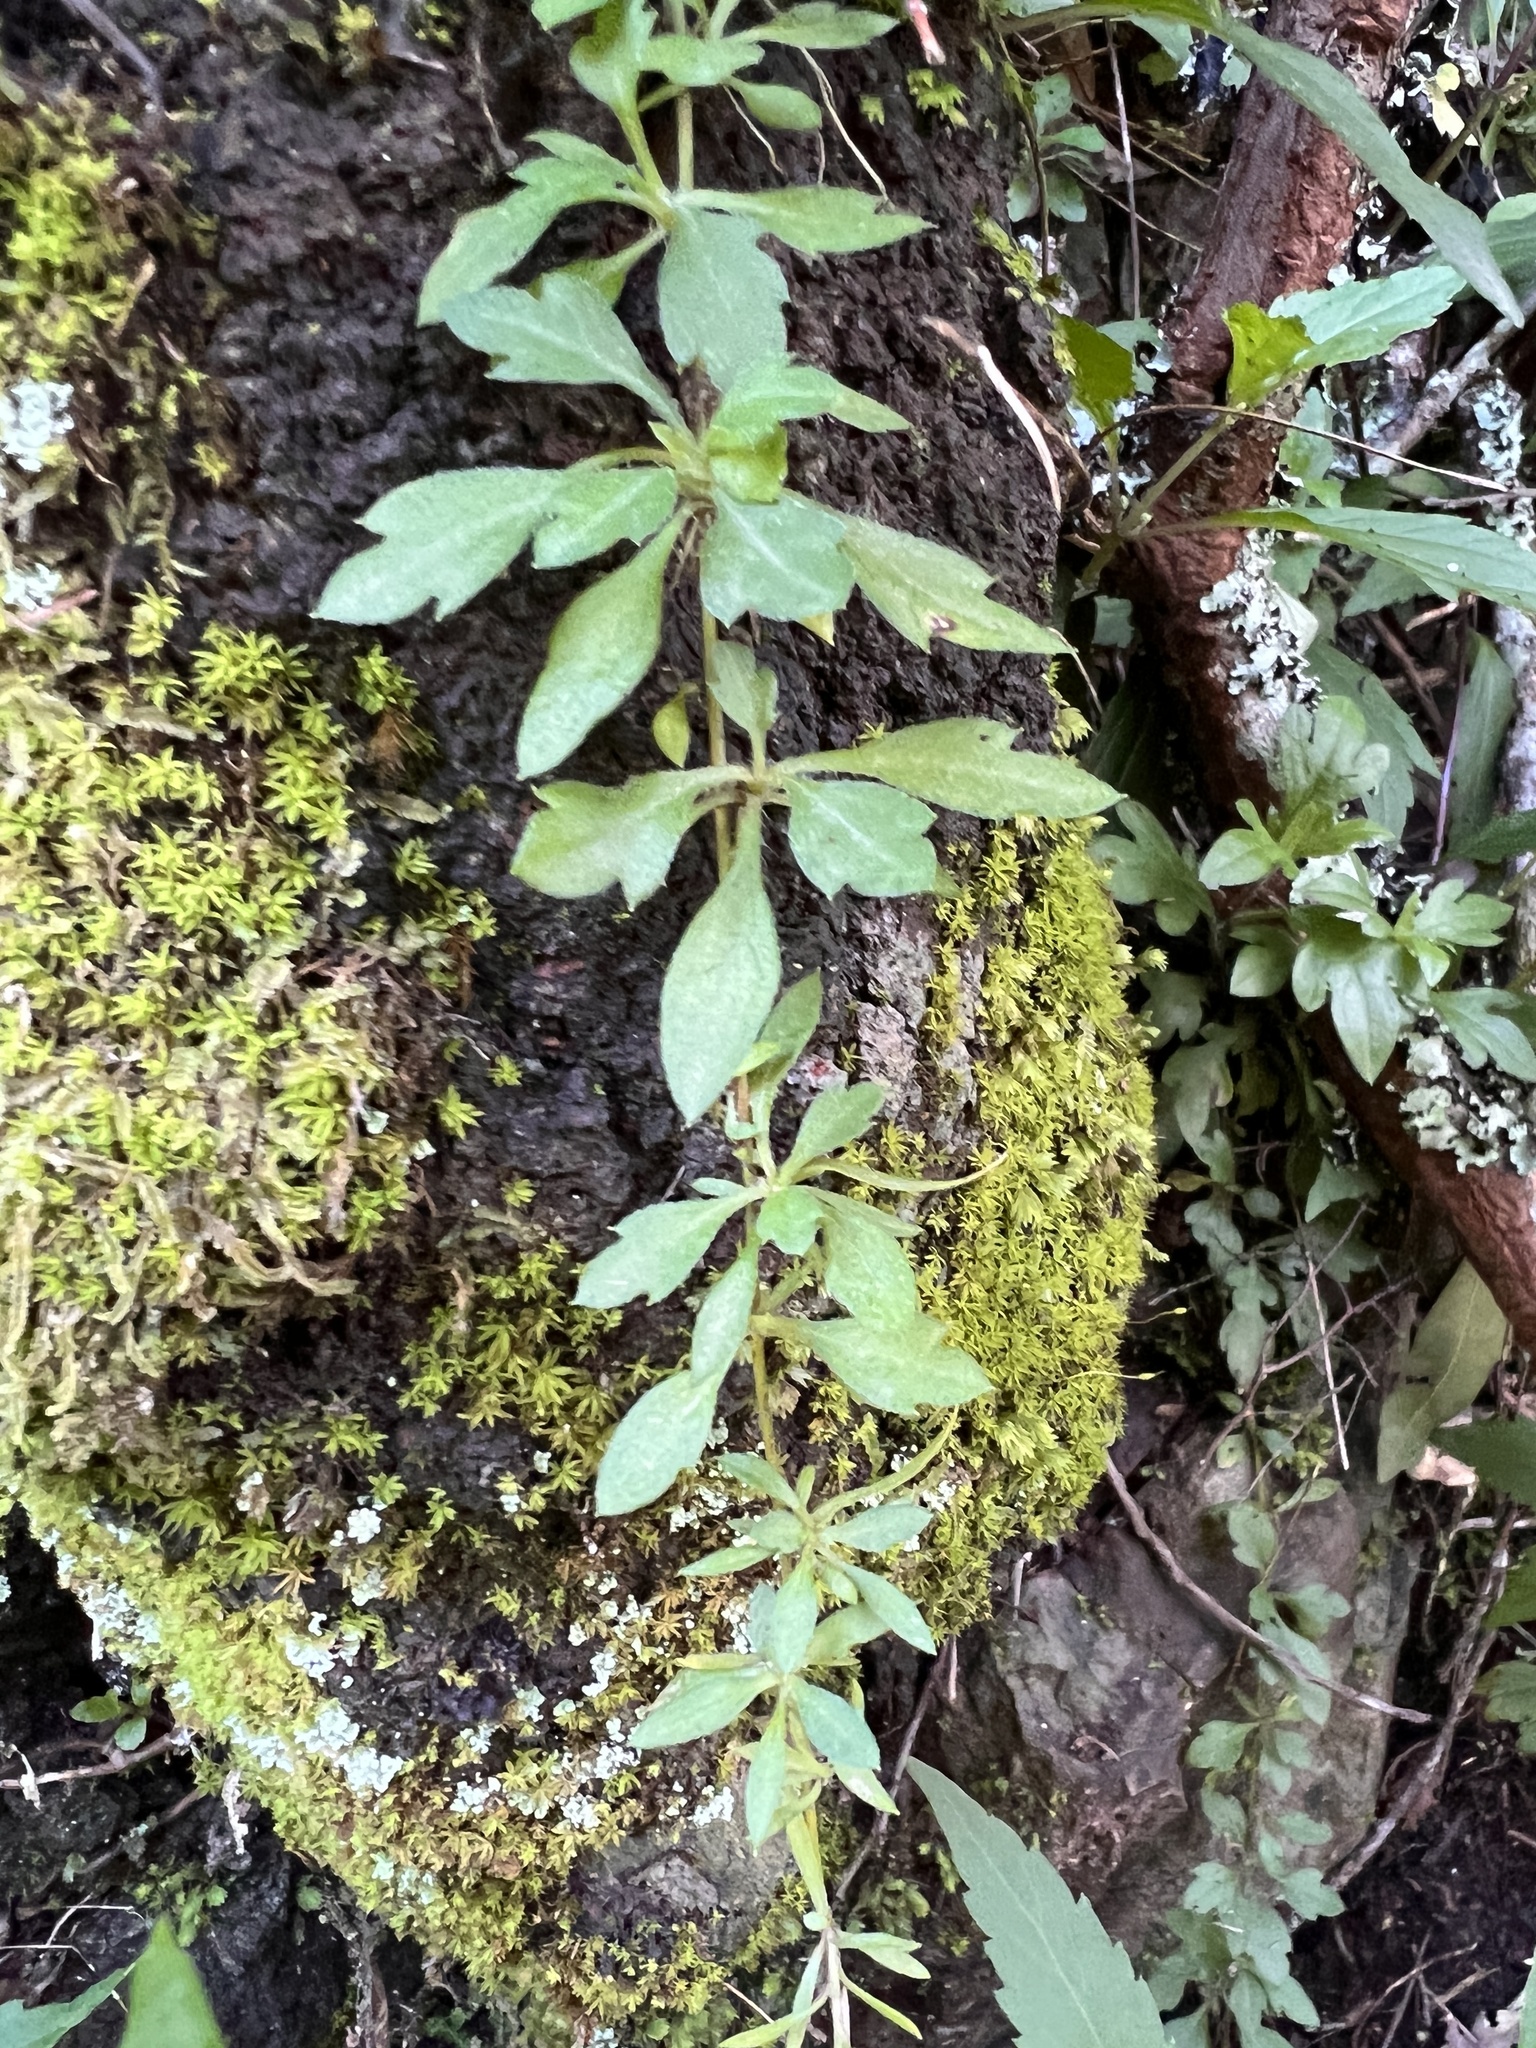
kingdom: Plantae
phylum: Tracheophyta
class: Magnoliopsida
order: Asterales
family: Asteraceae
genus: Erigeron
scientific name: Erigeron karvinskianus
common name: Mexican fleabane
